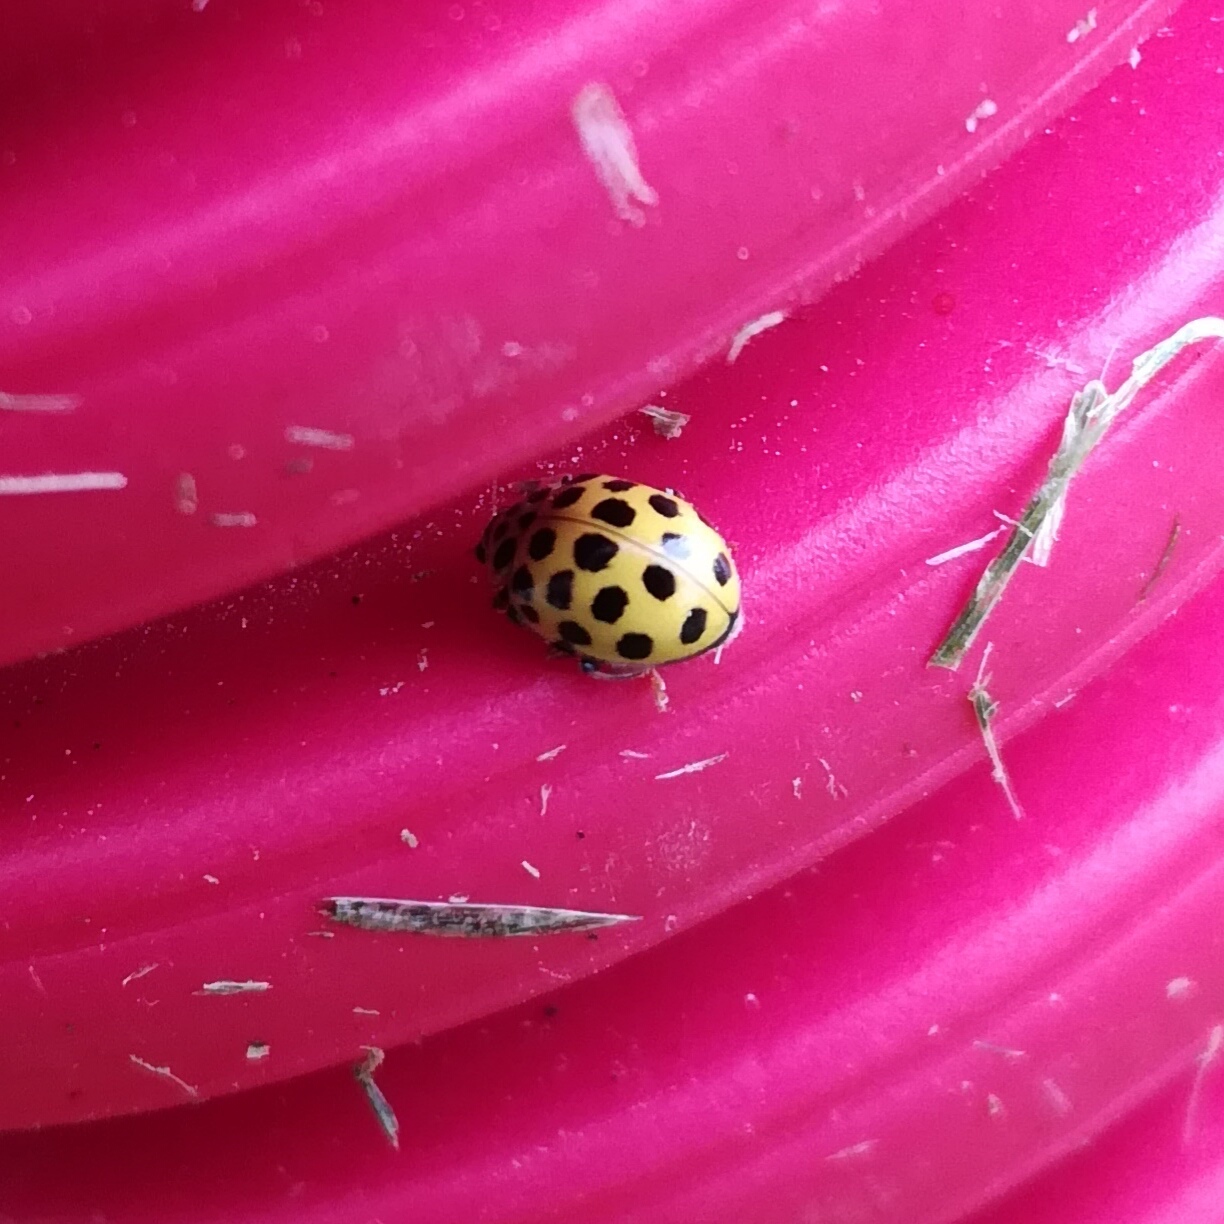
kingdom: Animalia
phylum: Arthropoda
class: Insecta
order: Coleoptera
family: Coccinellidae
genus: Psyllobora
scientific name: Psyllobora vigintiduopunctata
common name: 22-spot ladybird
